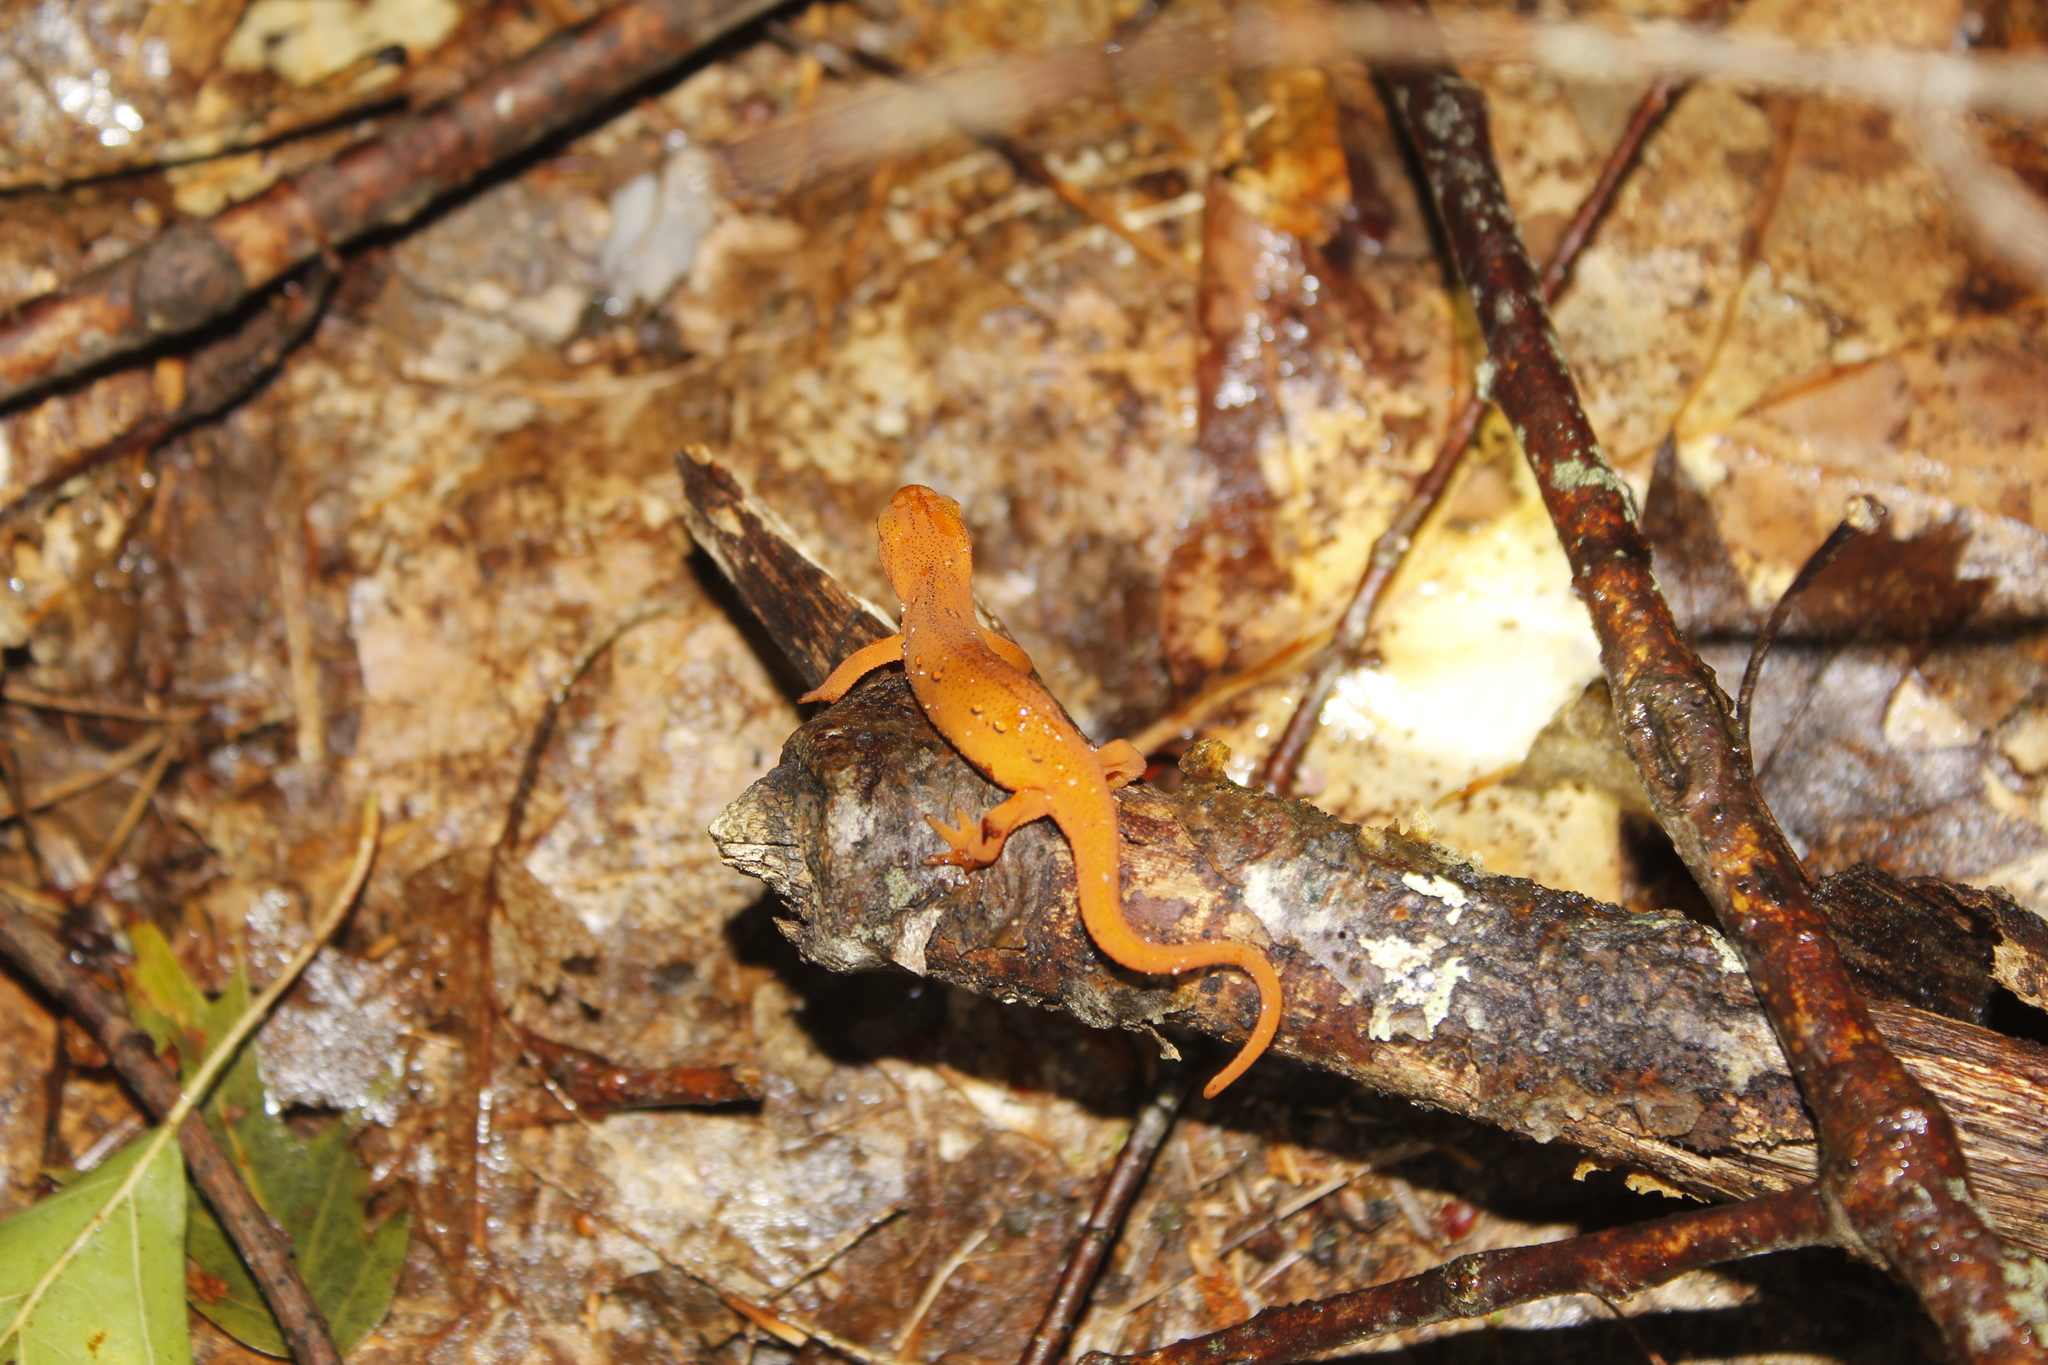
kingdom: Animalia
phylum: Chordata
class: Amphibia
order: Caudata
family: Salamandridae
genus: Notophthalmus
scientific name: Notophthalmus viridescens
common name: Eastern newt
